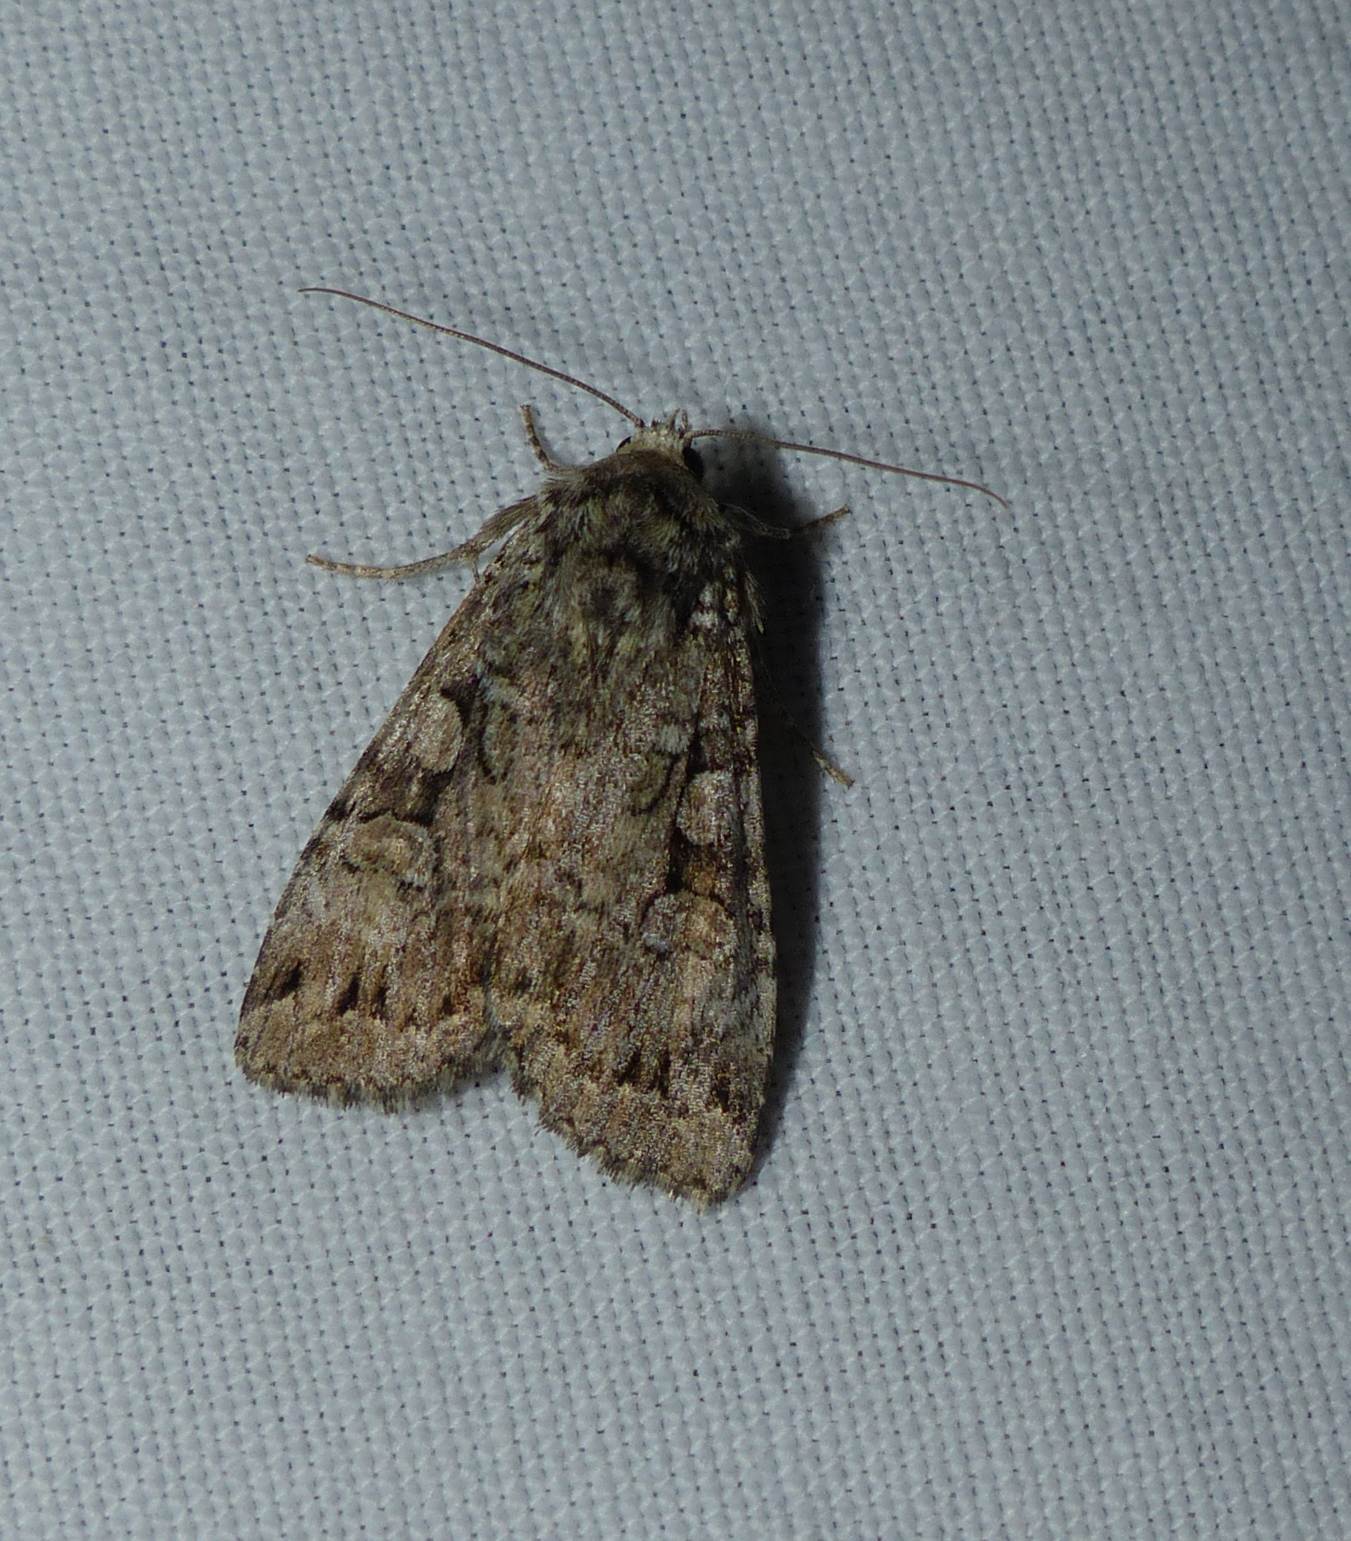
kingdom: Animalia
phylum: Arthropoda
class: Insecta
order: Lepidoptera
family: Noctuidae
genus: Anaplectoides
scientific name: Anaplectoides pressus
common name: Dappled dart
